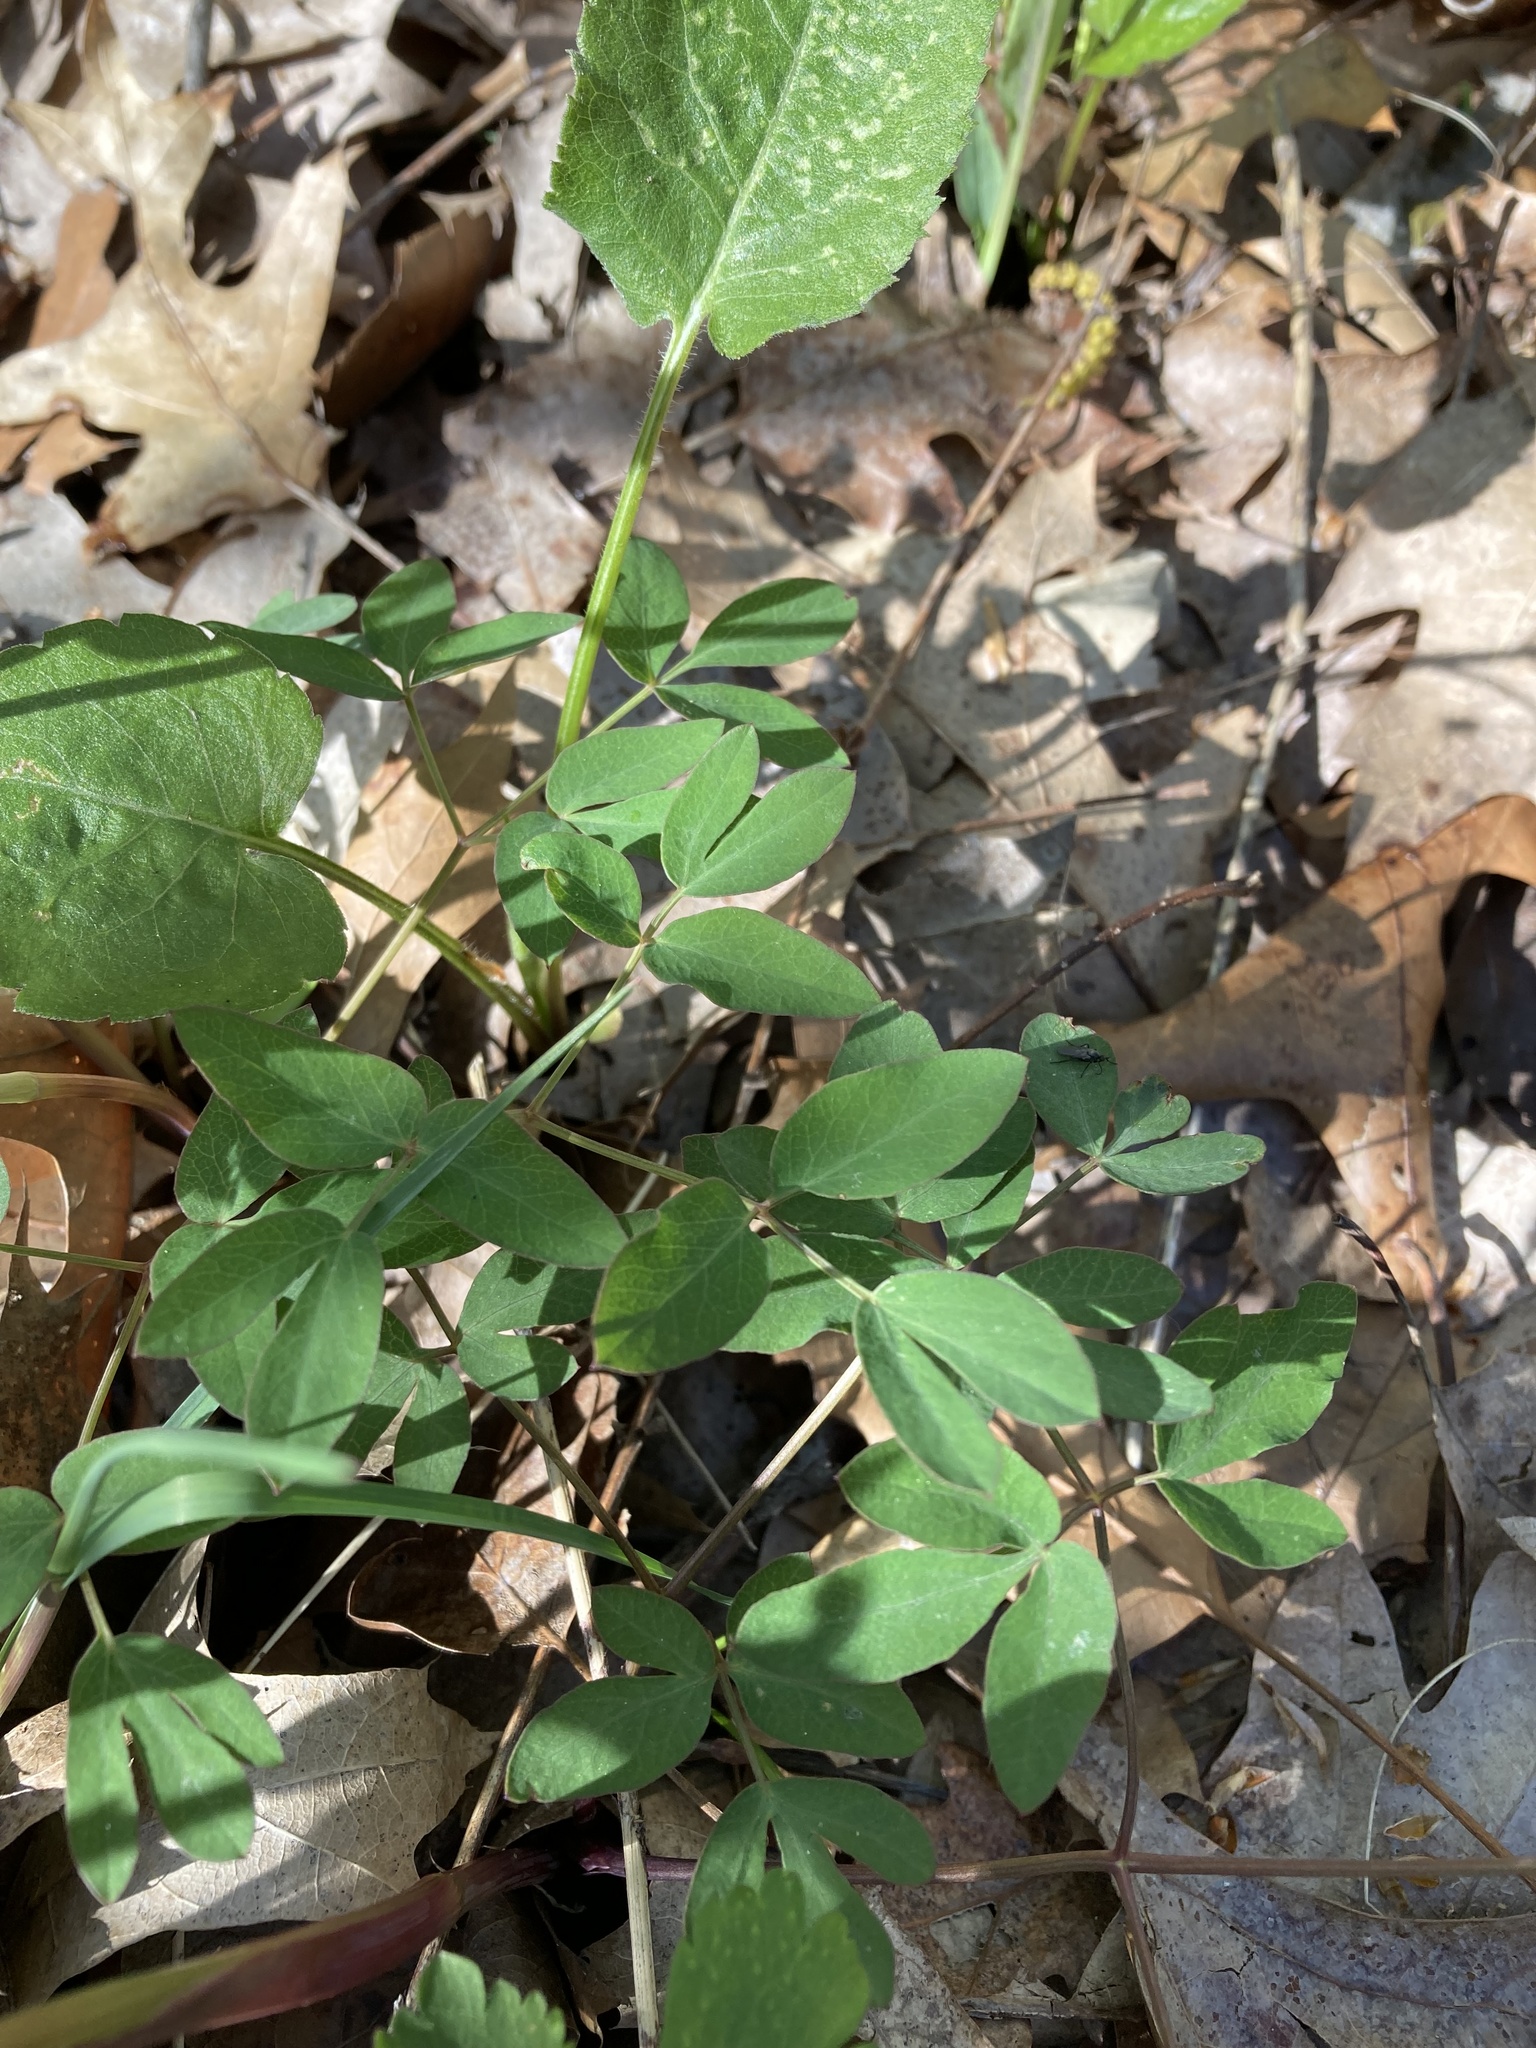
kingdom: Plantae
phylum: Tracheophyta
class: Magnoliopsida
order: Apiales
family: Apiaceae
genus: Taenidia
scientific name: Taenidia integerrima
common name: Golden alexander
